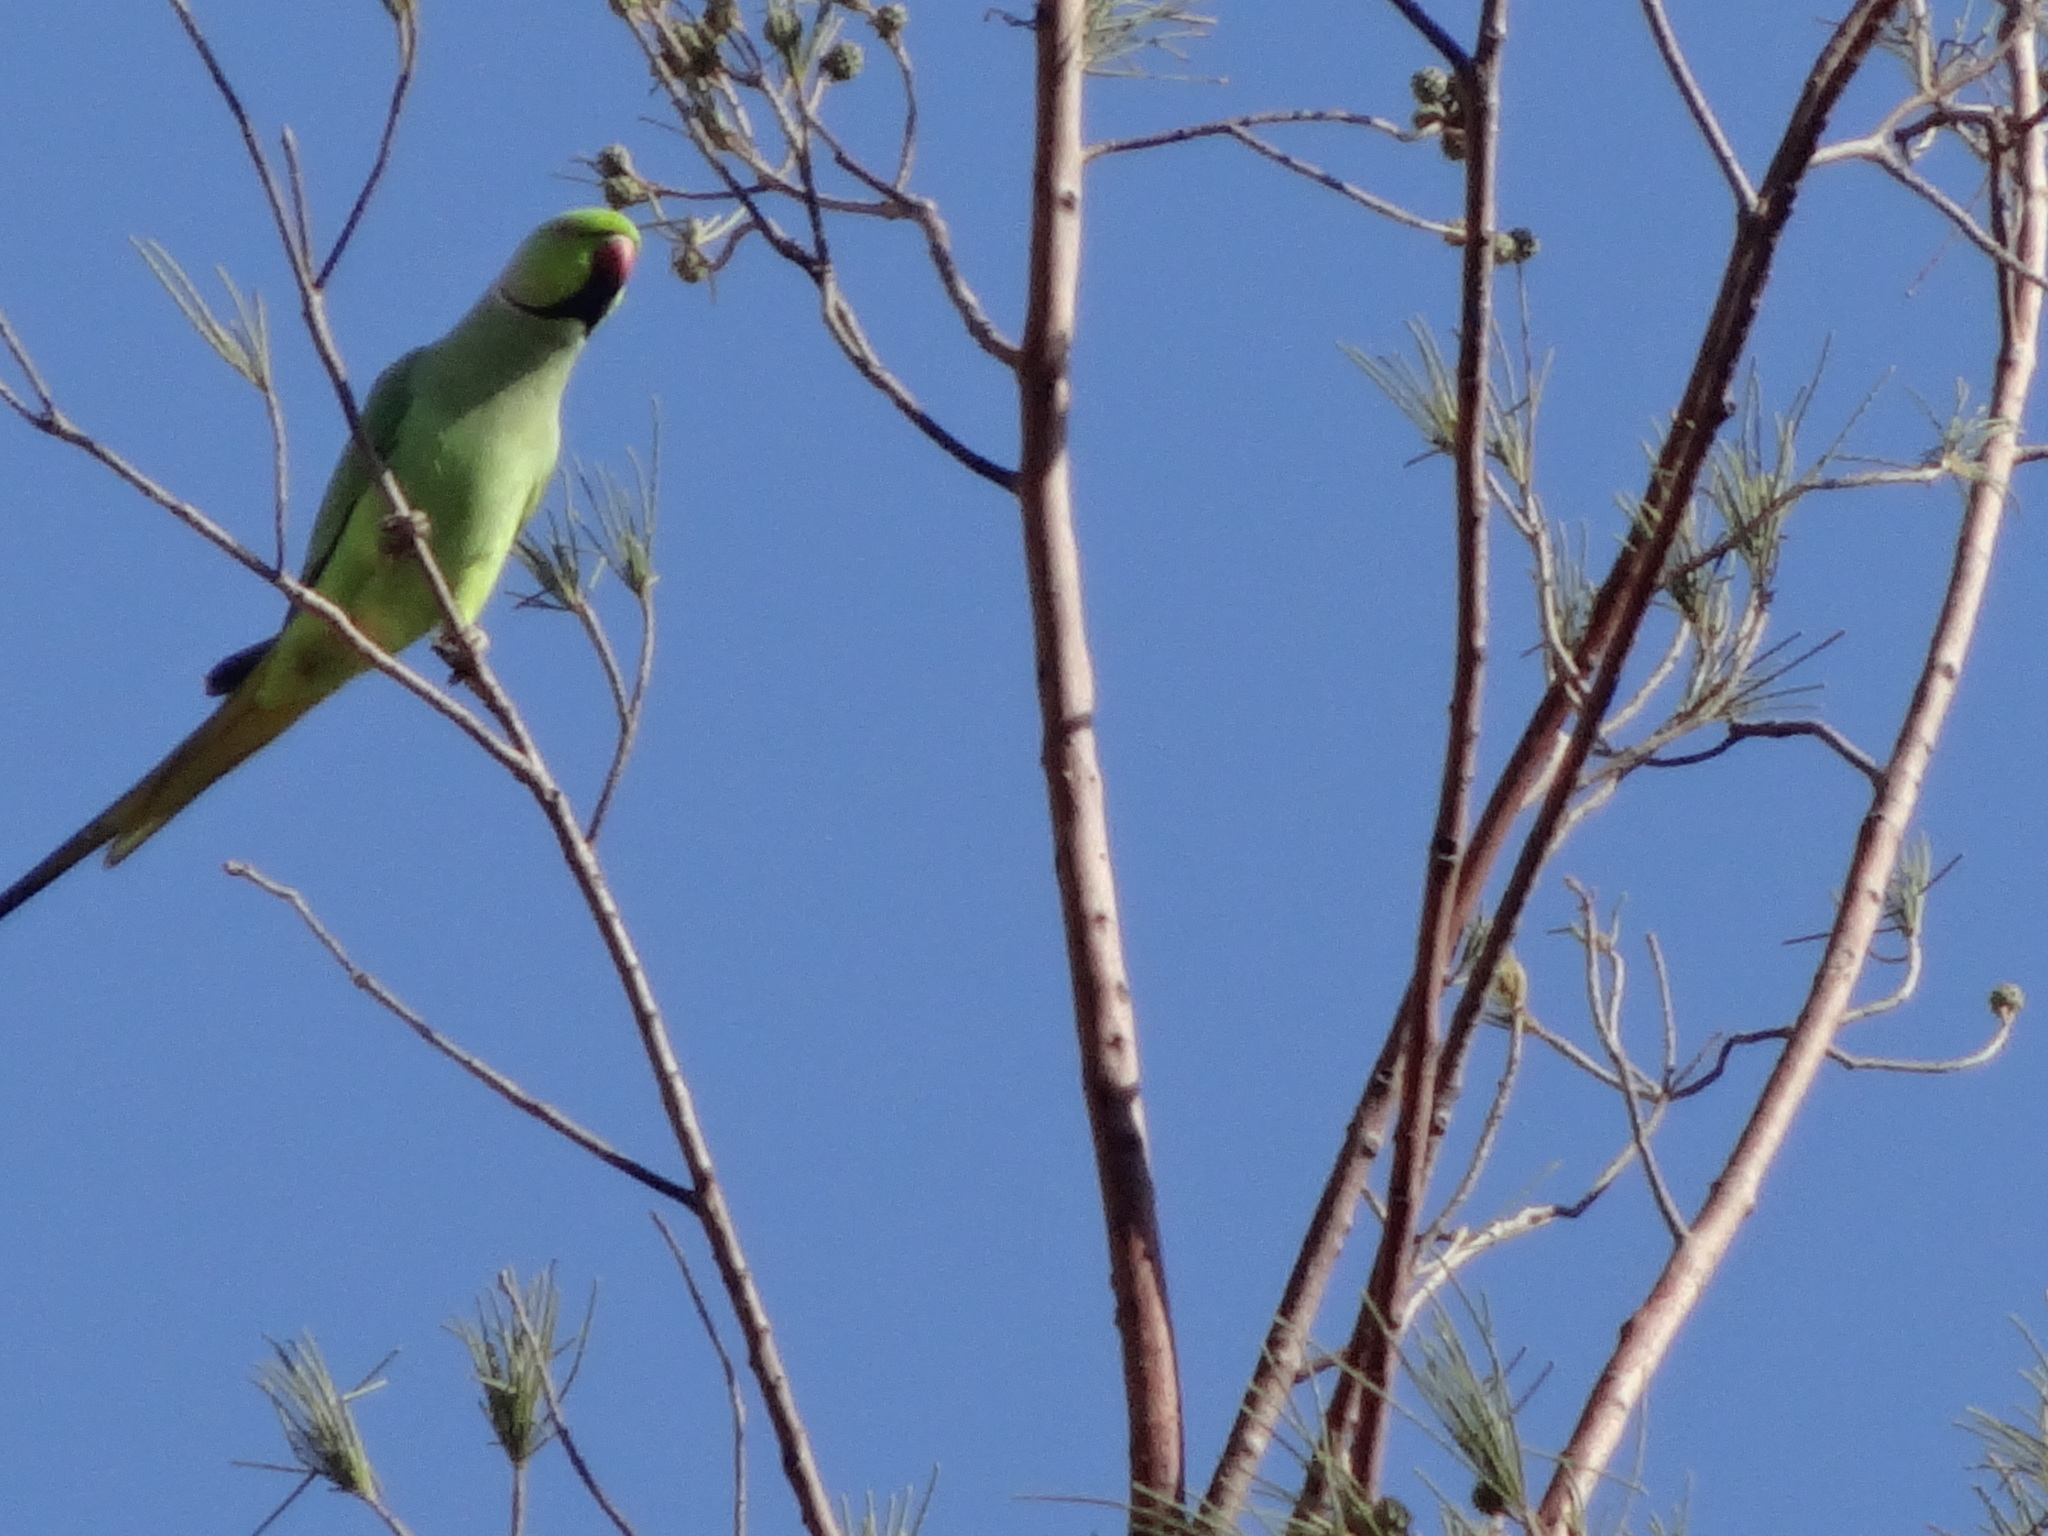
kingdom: Animalia
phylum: Chordata
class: Aves
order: Psittaciformes
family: Psittacidae
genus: Psittacula
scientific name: Psittacula krameri
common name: Rose-ringed parakeet
